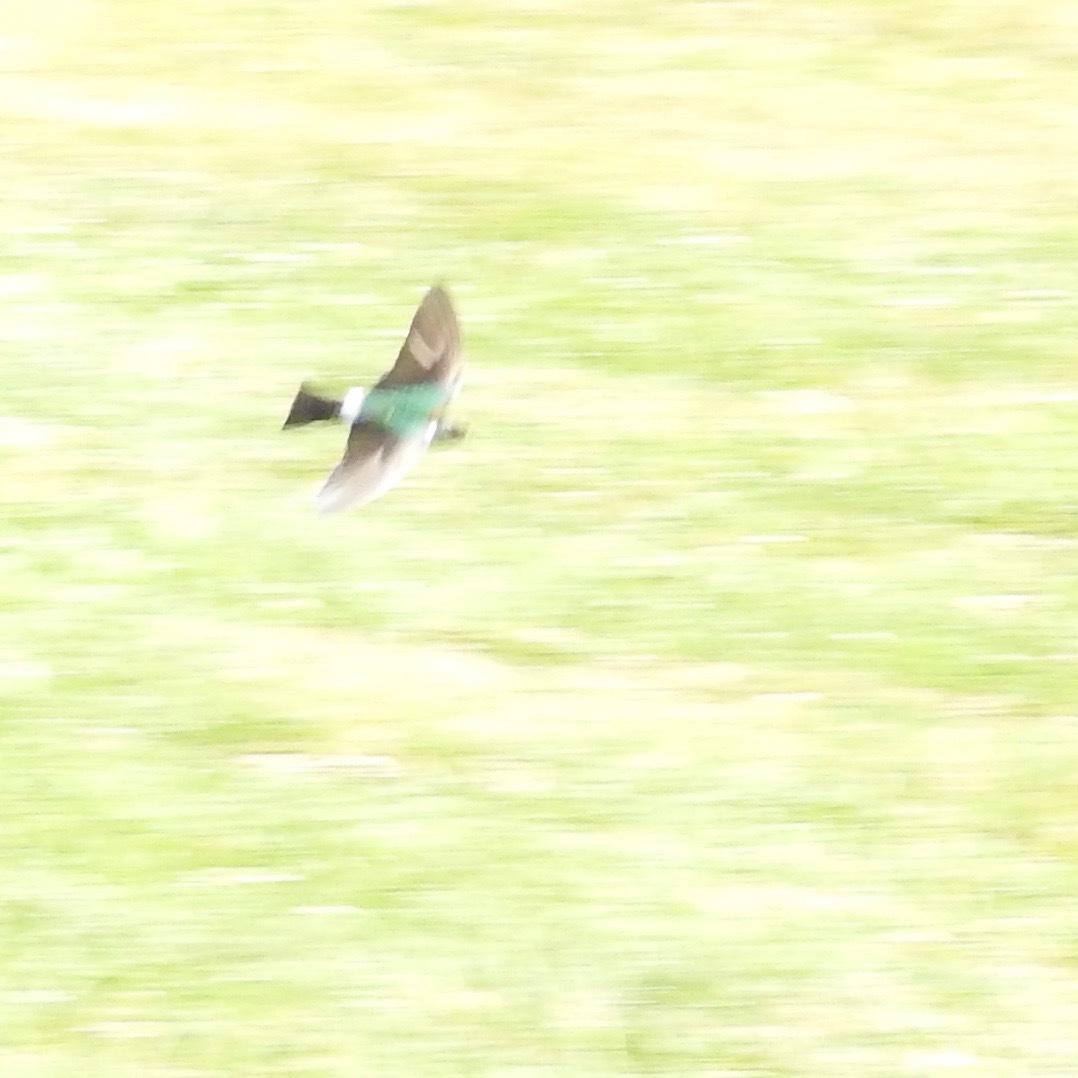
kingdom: Animalia
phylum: Chordata
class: Aves
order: Passeriformes
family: Hirundinidae
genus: Tachycineta
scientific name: Tachycineta thalassina
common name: Violet-green swallow
